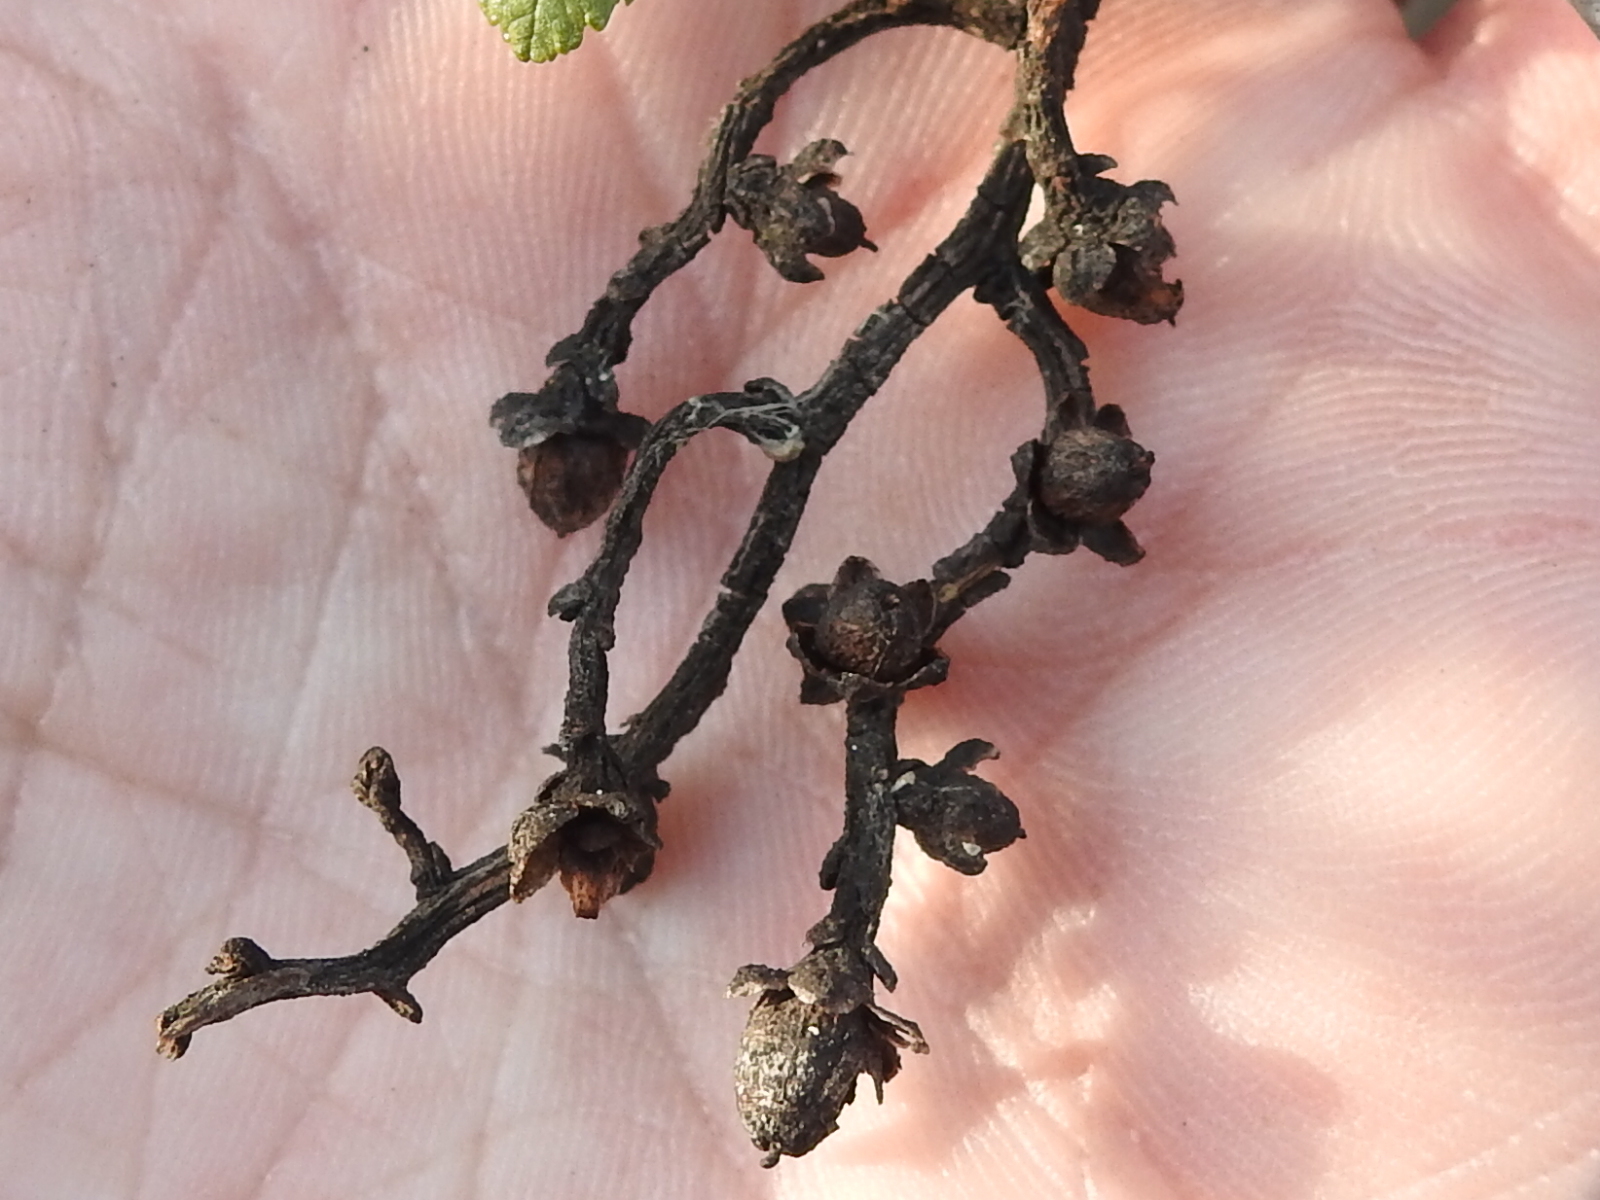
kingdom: Plantae
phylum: Tracheophyta
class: Magnoliopsida
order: Solanales
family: Convolvulaceae
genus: Cuscuta
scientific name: Cuscuta exaltata
